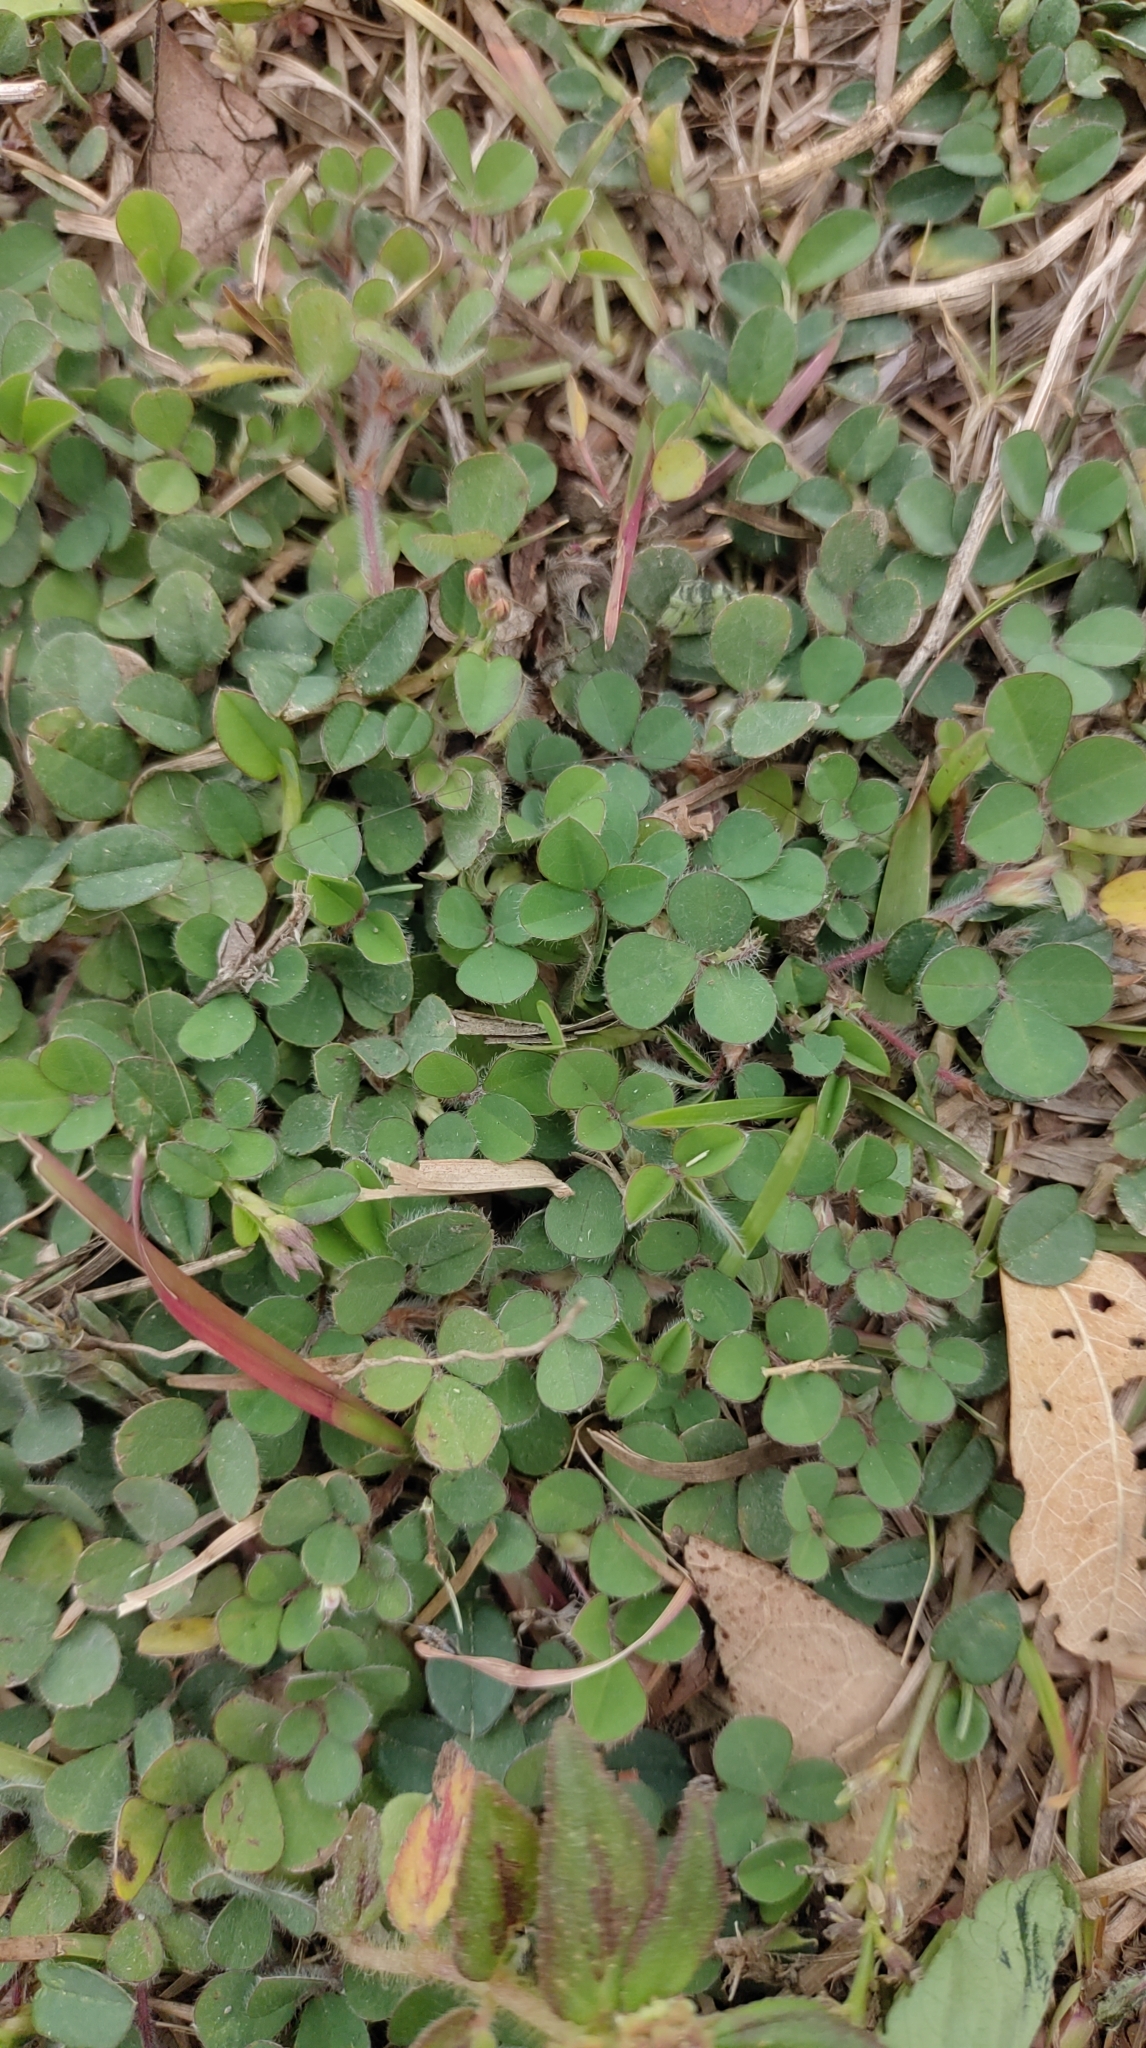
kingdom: Plantae
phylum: Tracheophyta
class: Magnoliopsida
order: Fabales
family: Fabaceae
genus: Grona
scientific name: Grona triflora
